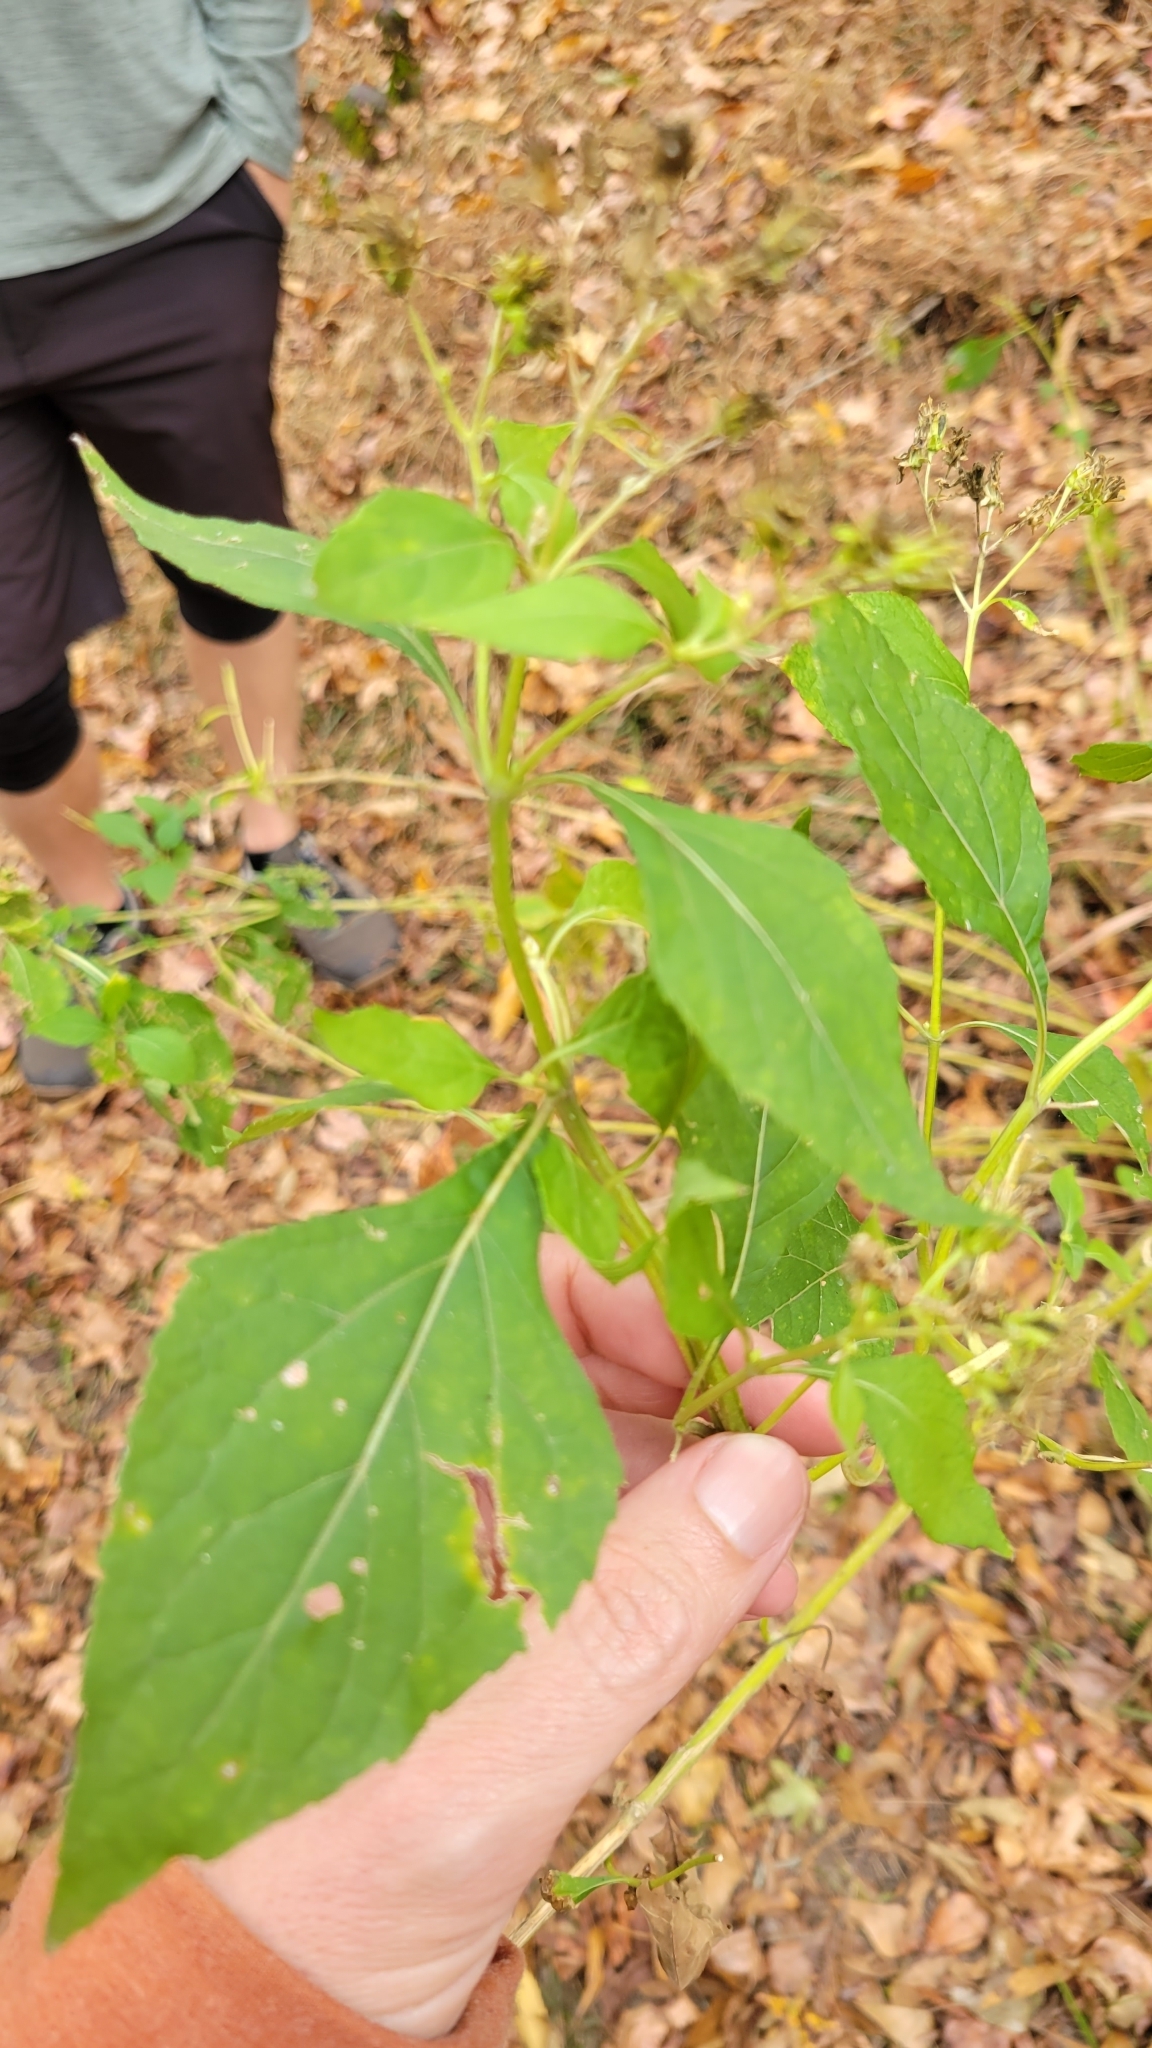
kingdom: Plantae
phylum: Tracheophyta
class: Magnoliopsida
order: Asterales
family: Asteraceae
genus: Verbesina
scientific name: Verbesina occidentalis
